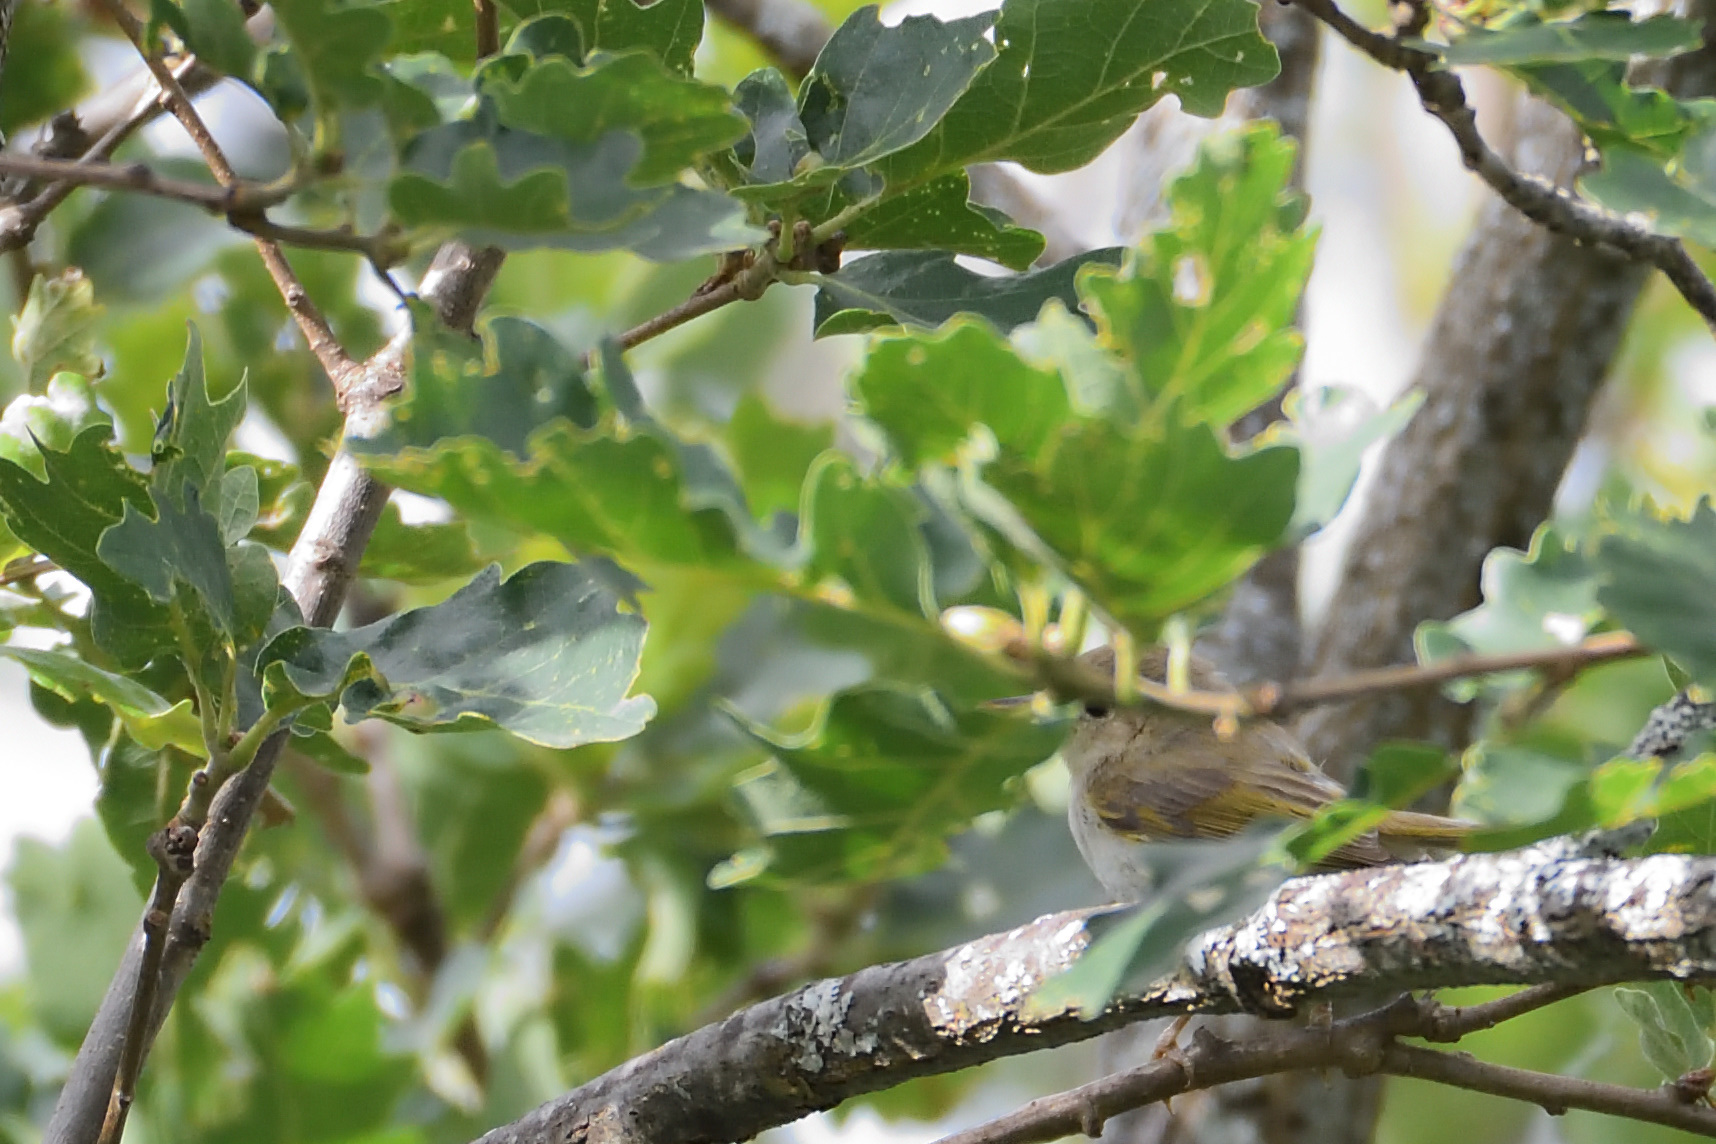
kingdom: Animalia
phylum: Chordata
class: Aves
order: Passeriformes
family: Phylloscopidae
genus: Phylloscopus
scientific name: Phylloscopus bonelli
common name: Western bonelli's warbler
